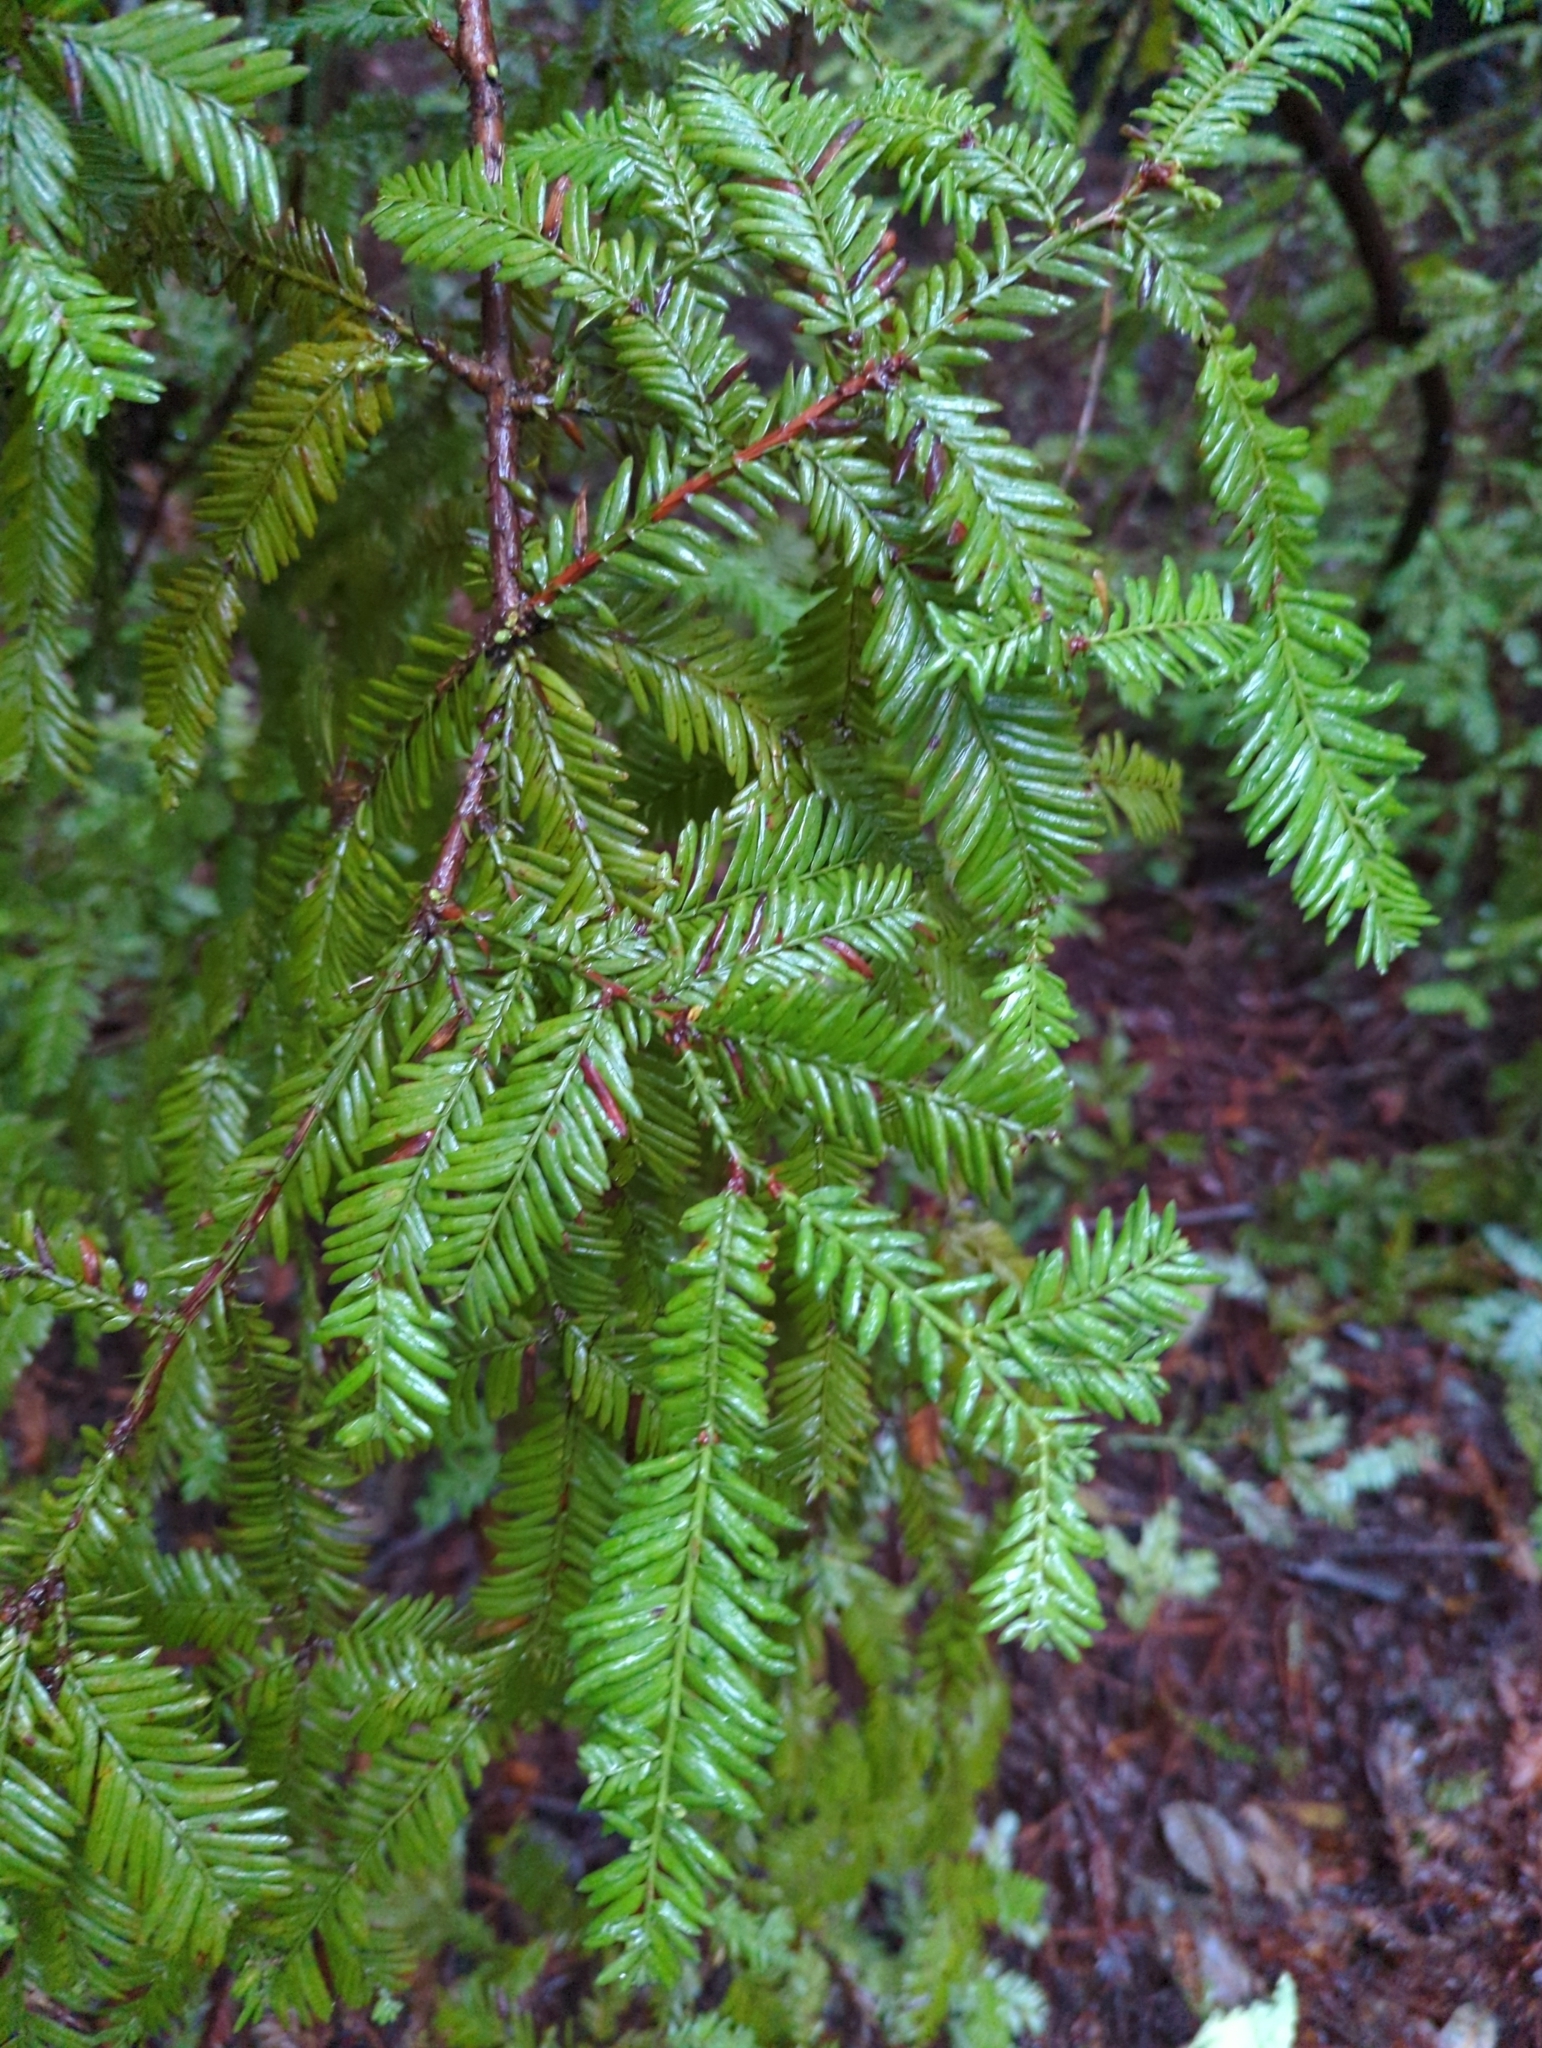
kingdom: Plantae
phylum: Tracheophyta
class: Pinopsida
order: Pinales
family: Cupressaceae
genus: Sequoia
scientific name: Sequoia sempervirens
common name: Coast redwood
